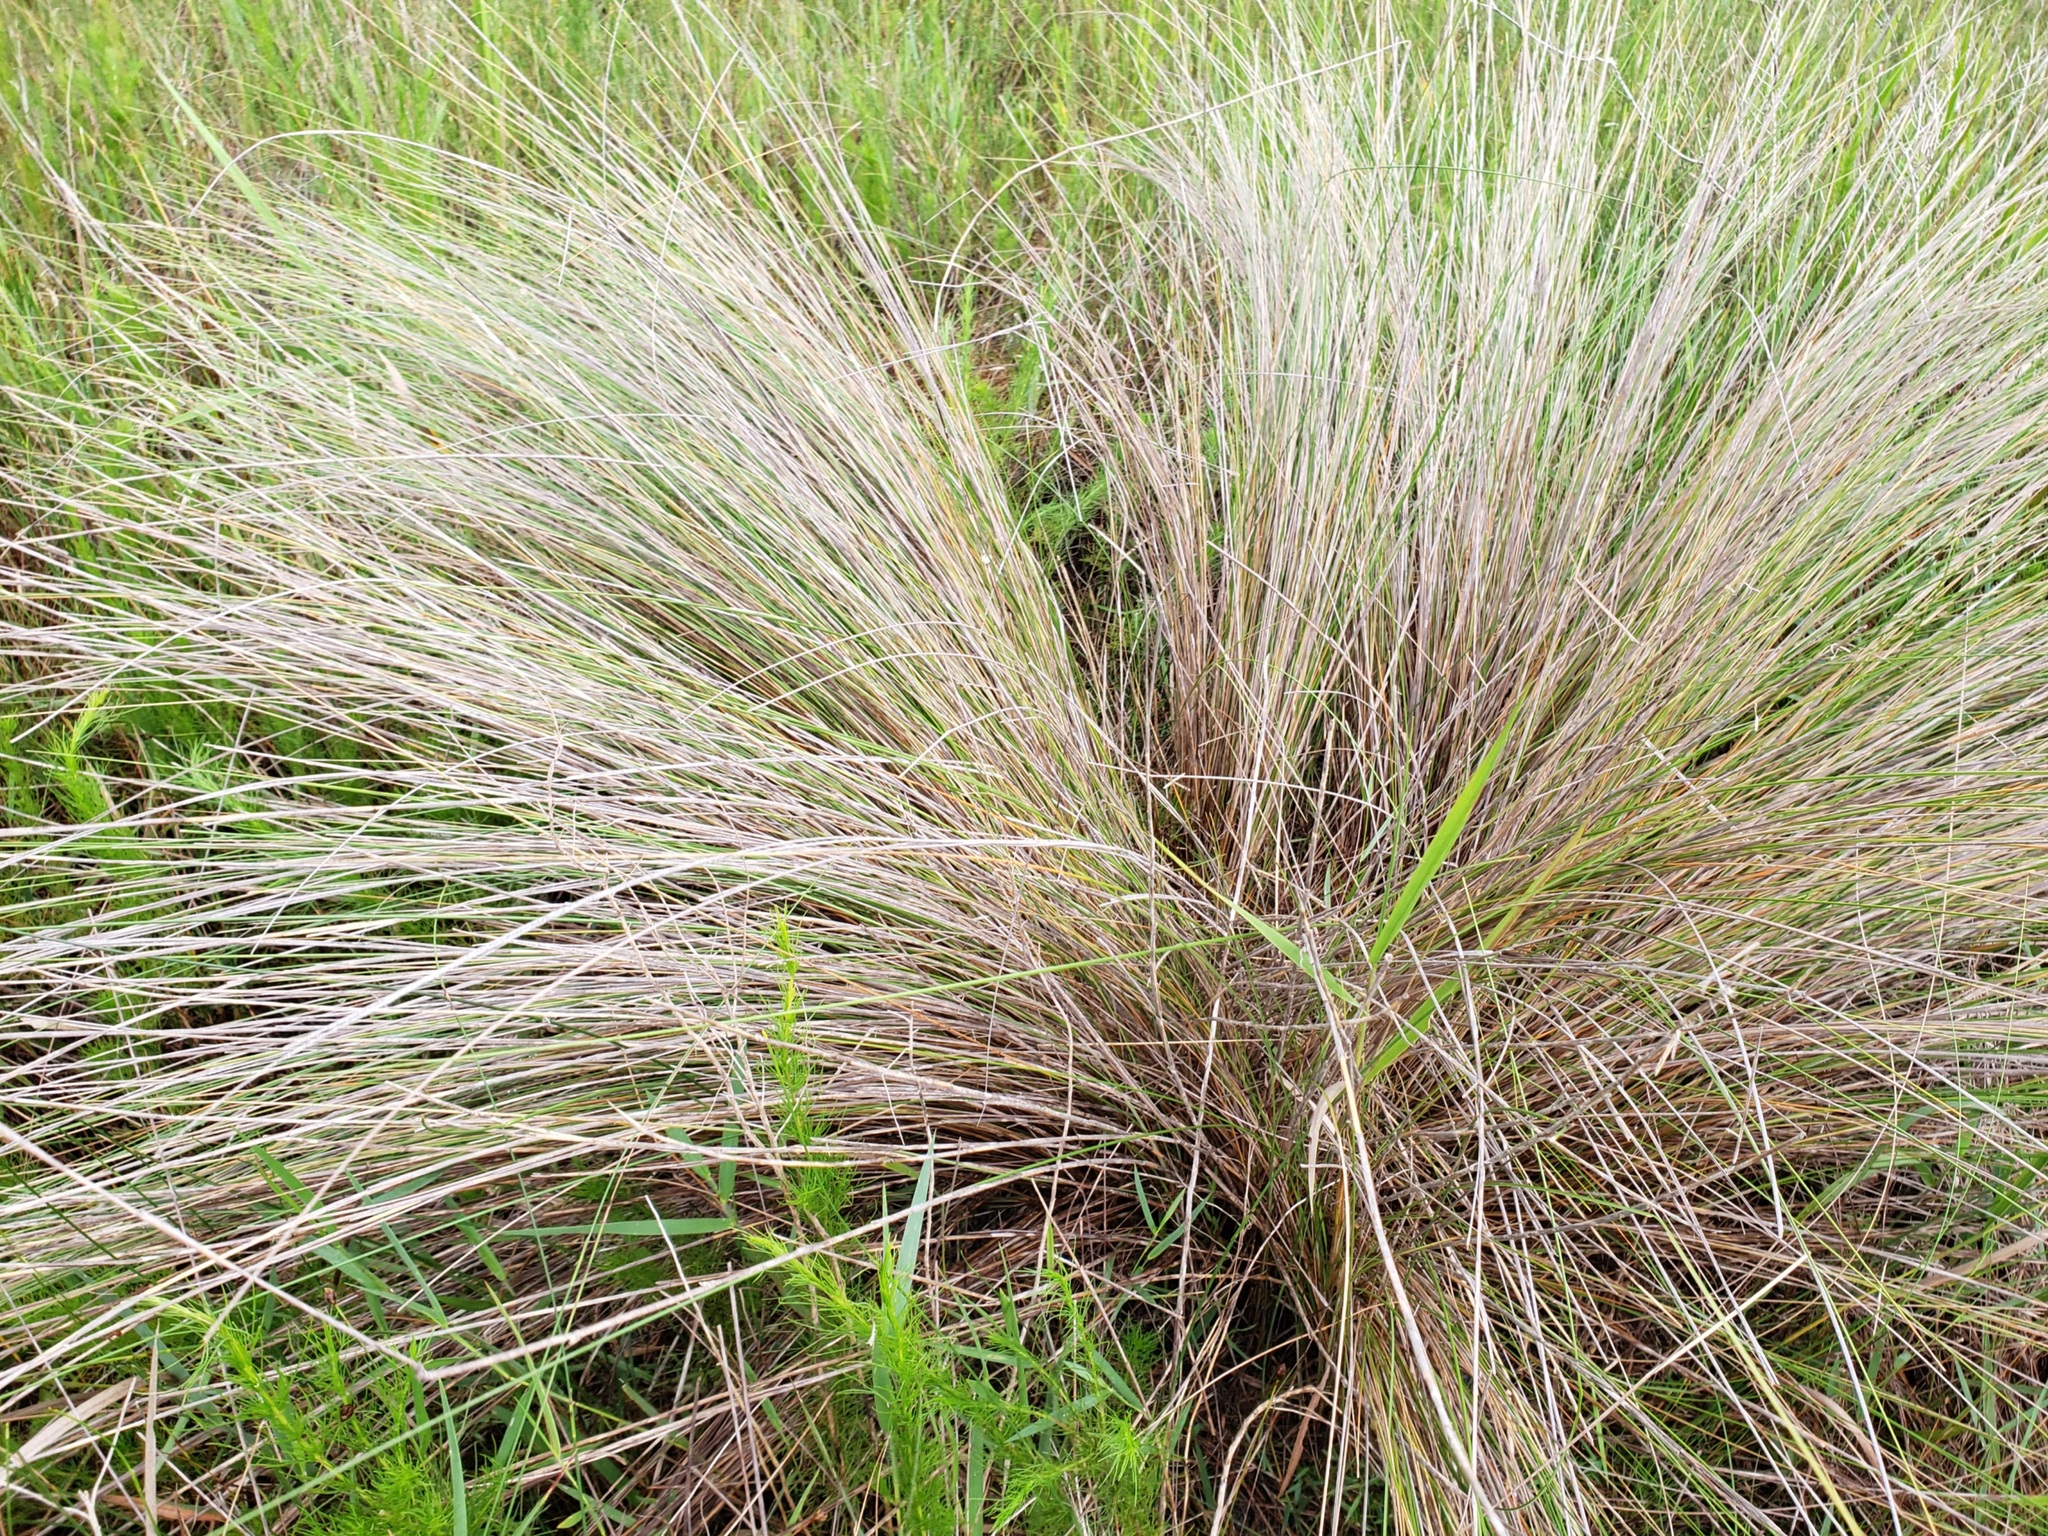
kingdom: Plantae
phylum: Tracheophyta
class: Liliopsida
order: Poales
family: Poaceae
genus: Sporobolus
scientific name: Sporobolus bakeri
